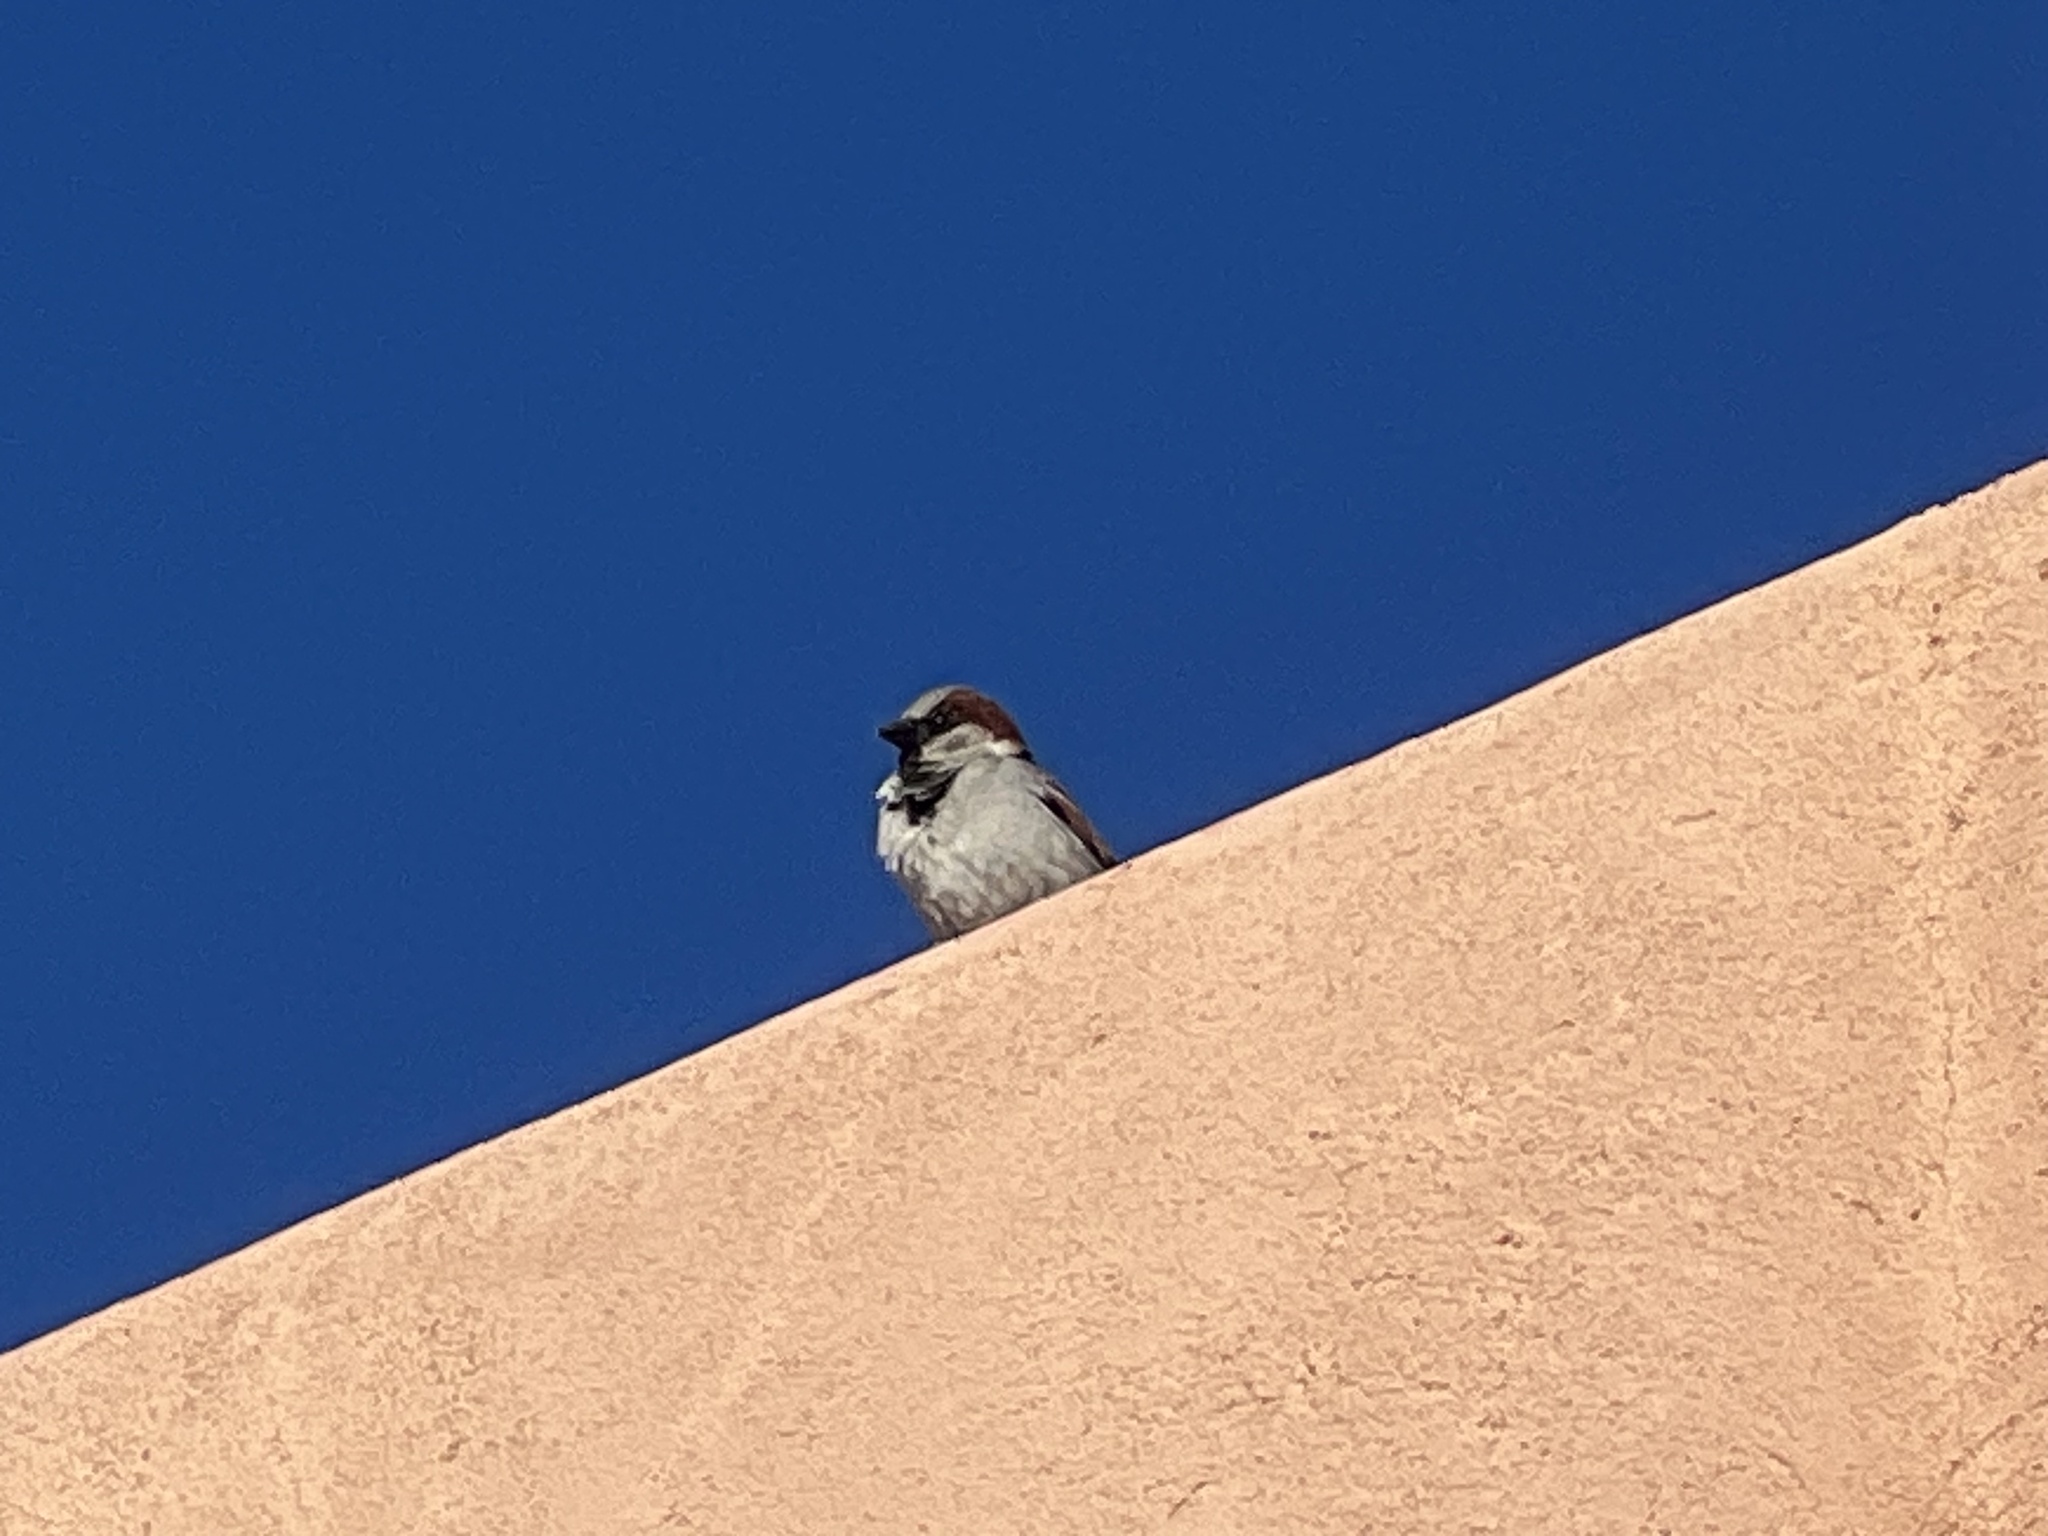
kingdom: Animalia
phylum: Chordata
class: Aves
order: Passeriformes
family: Passeridae
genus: Passer
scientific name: Passer domesticus
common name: House sparrow
